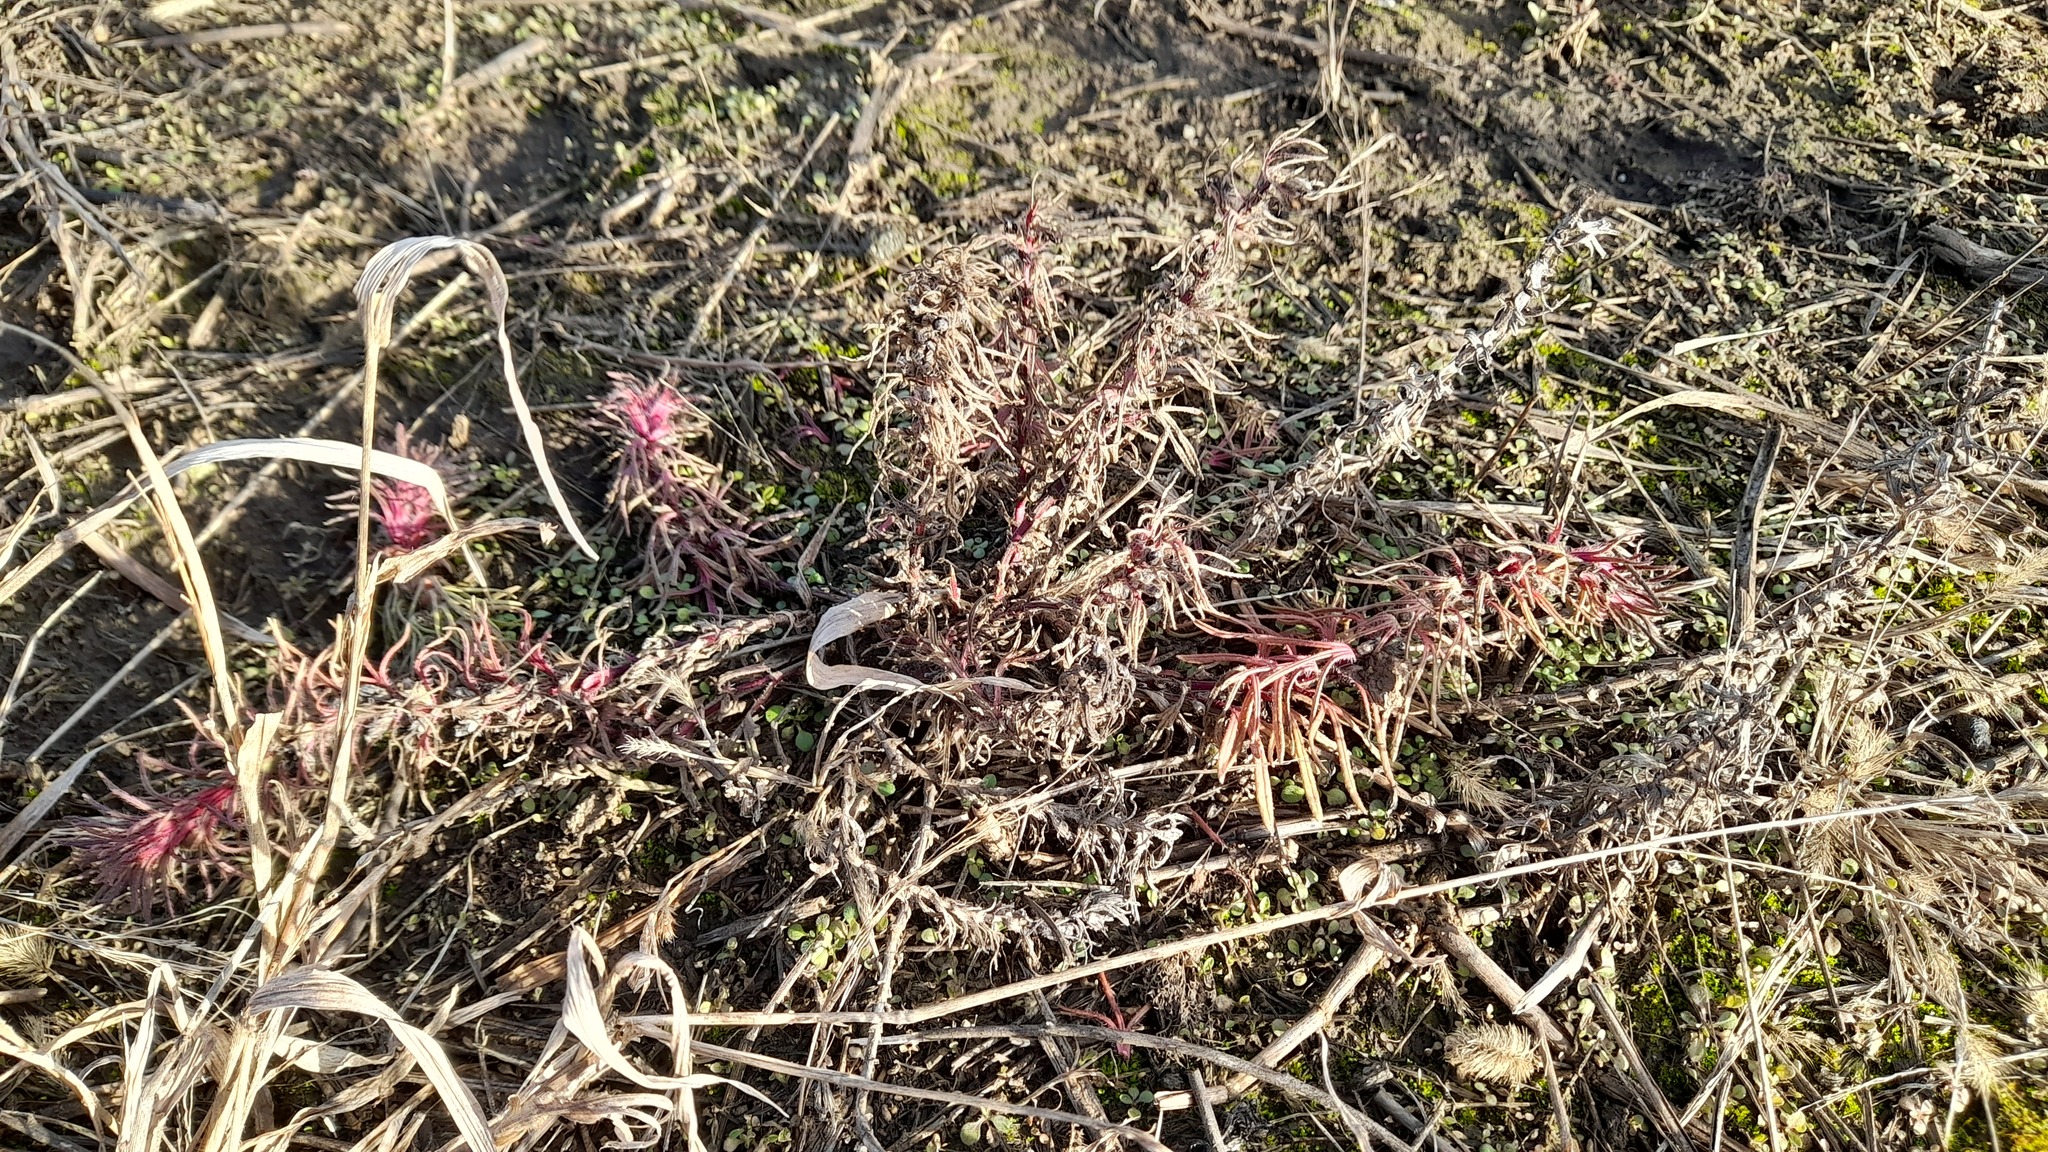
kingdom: Plantae
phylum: Tracheophyta
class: Magnoliopsida
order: Lamiales
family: Lamiaceae
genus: Ajuga
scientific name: Ajuga chamaepitys
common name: Ground-pine
